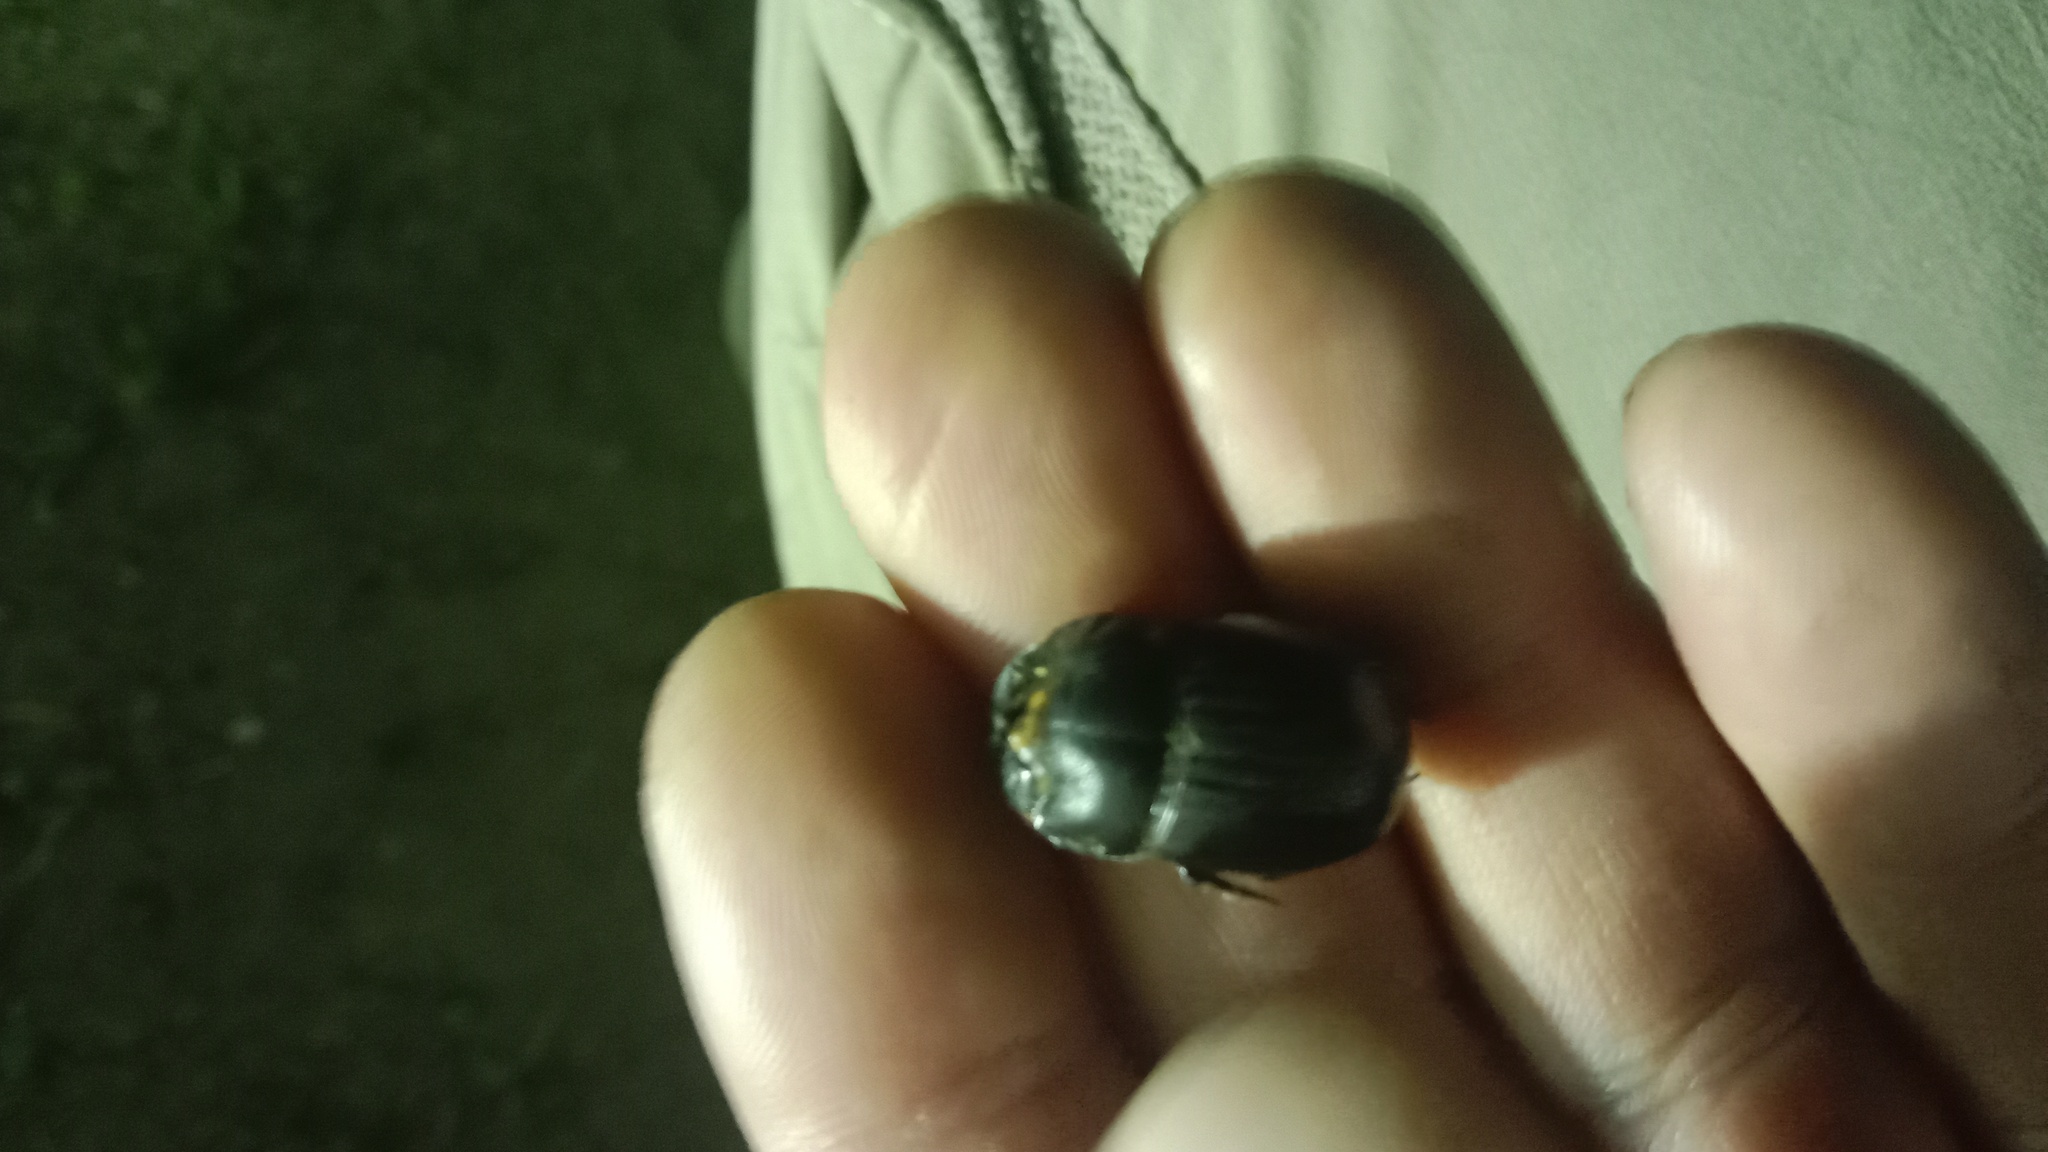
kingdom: Animalia
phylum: Arthropoda
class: Insecta
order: Coleoptera
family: Scarabaeidae
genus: Copris
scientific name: Copris lunaris
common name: Horned dung beetle
